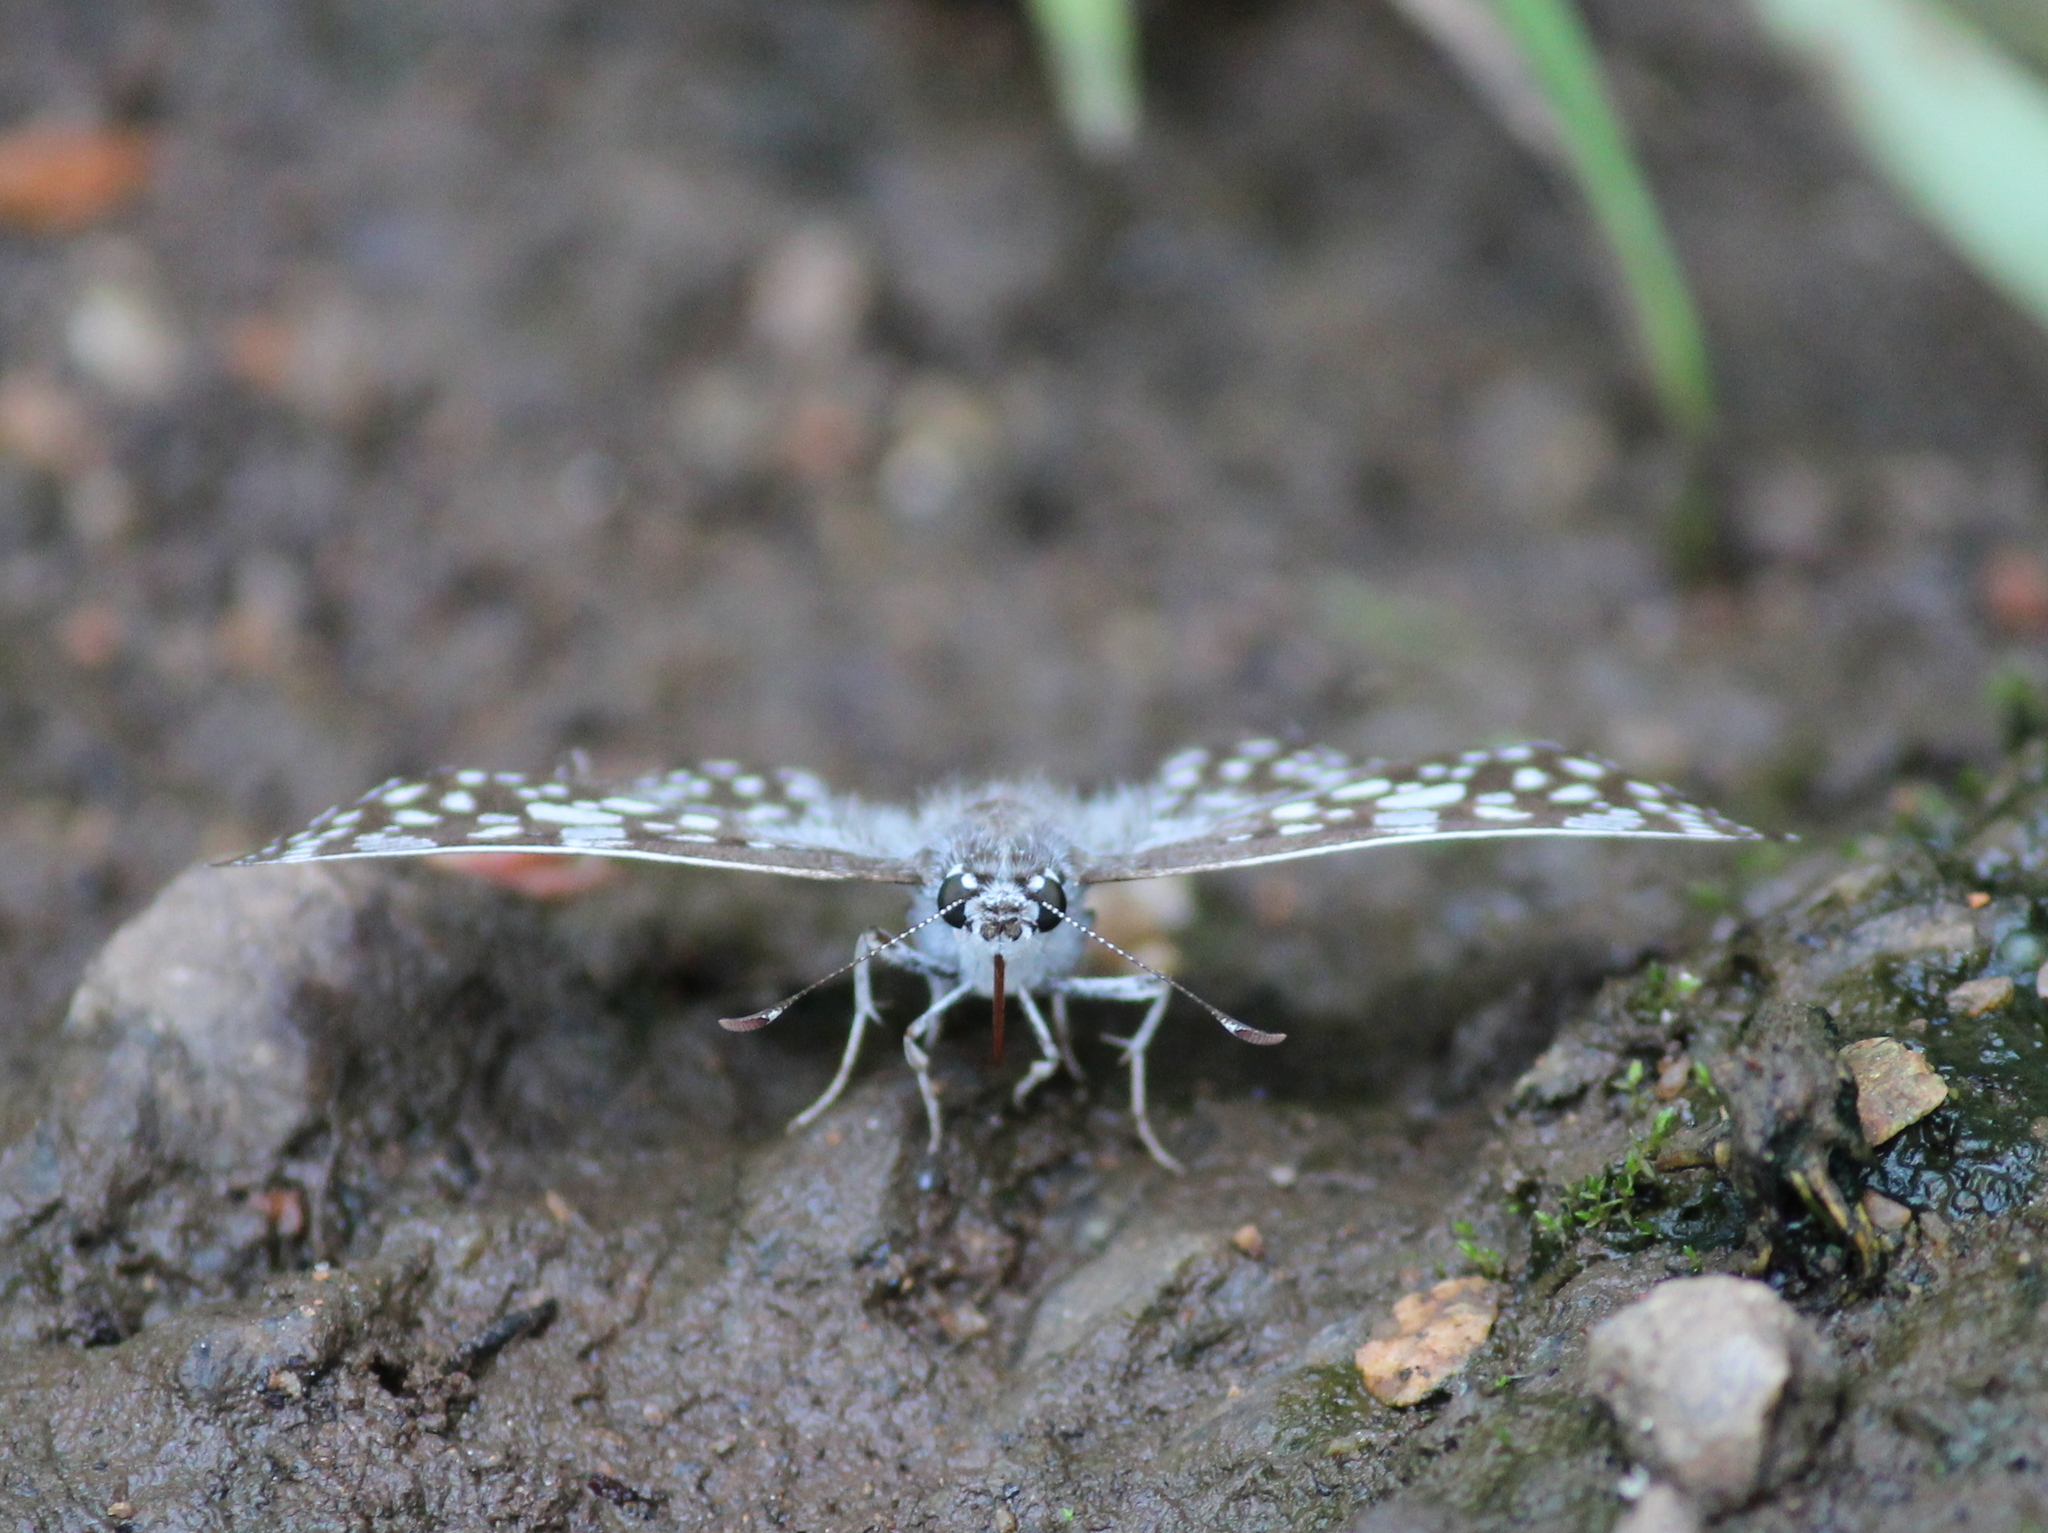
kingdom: Animalia
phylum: Arthropoda
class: Insecta
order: Lepidoptera
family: Hesperiidae
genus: Caprona
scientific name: Caprona agama
